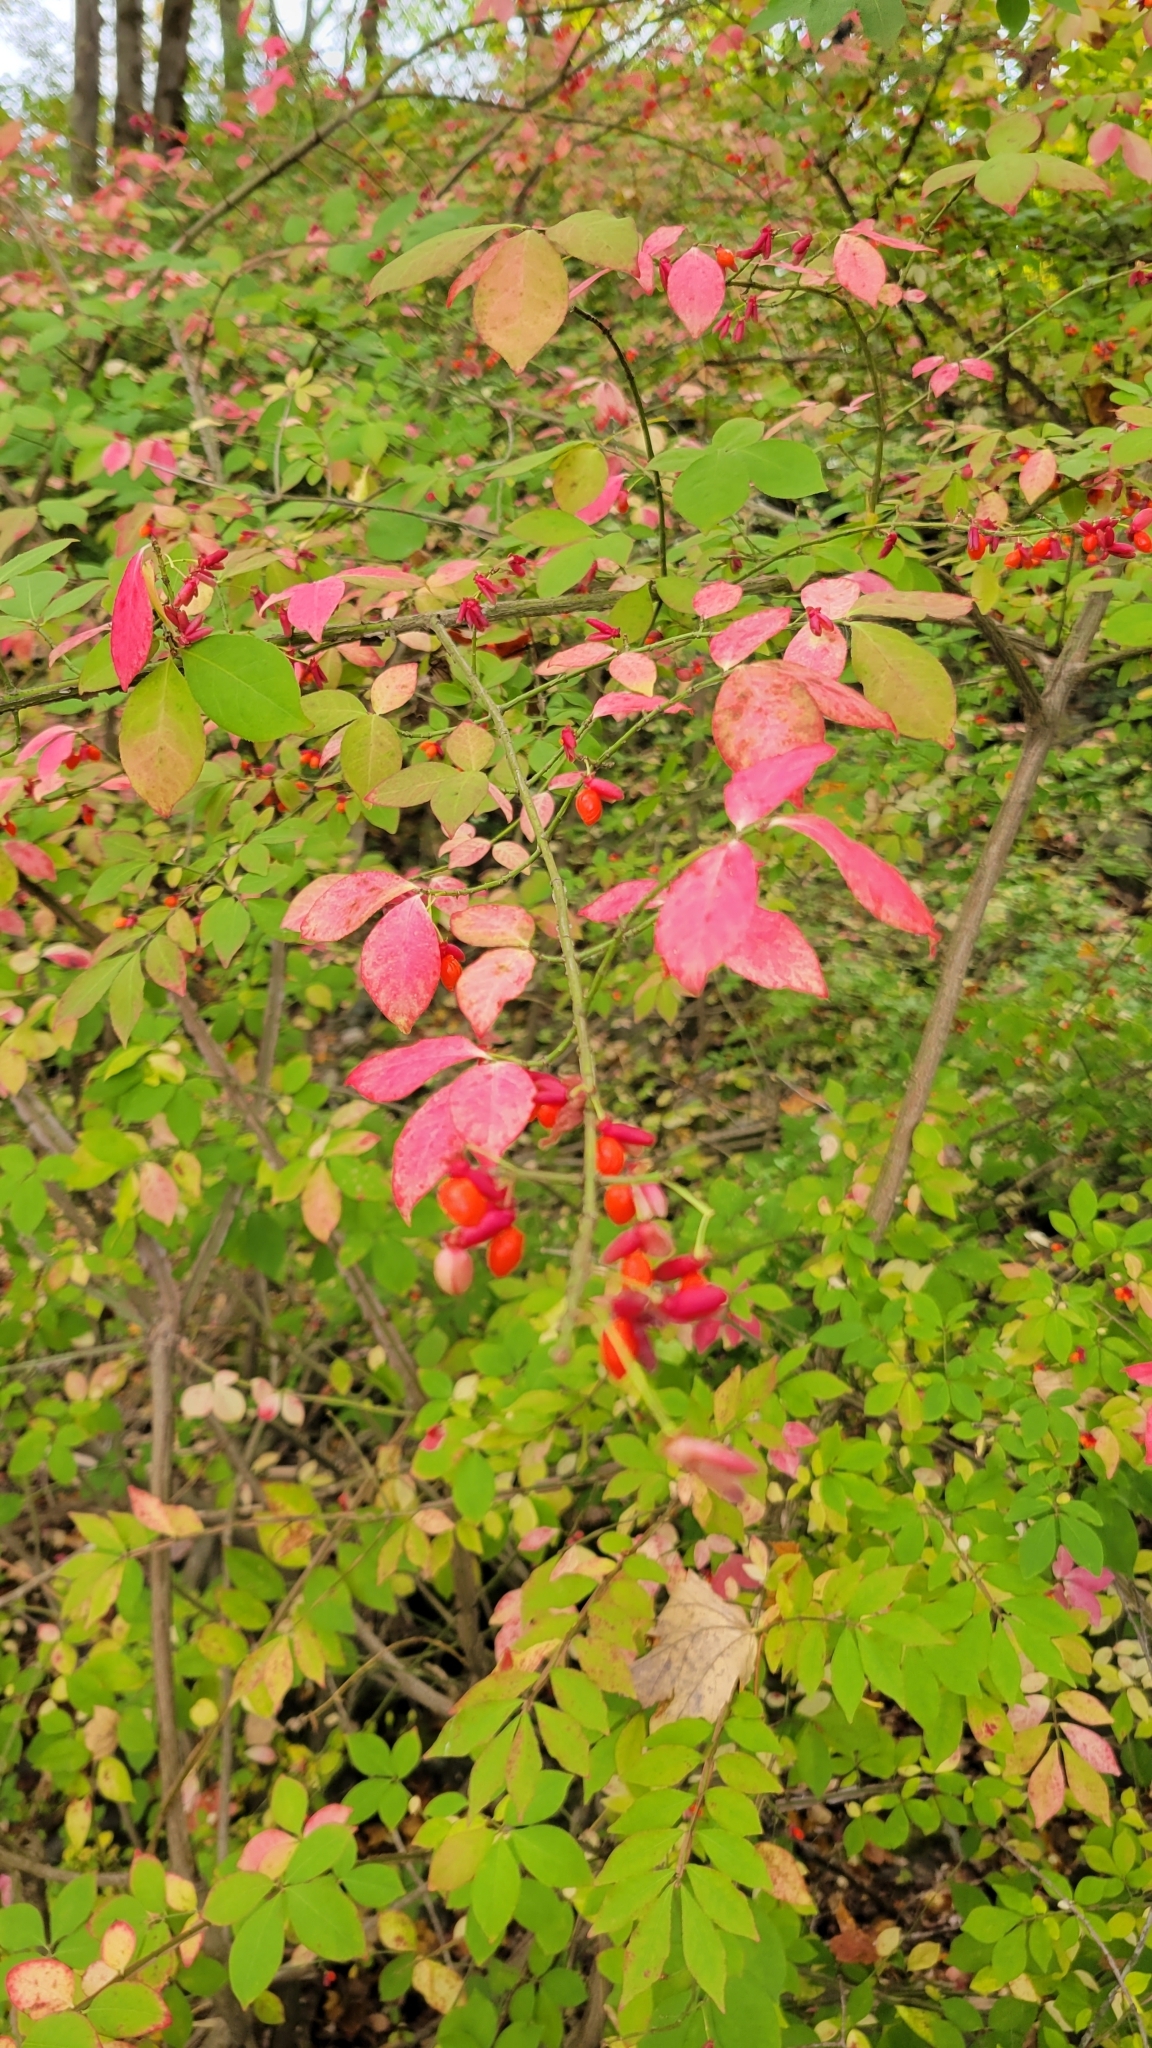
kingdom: Plantae
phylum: Tracheophyta
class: Magnoliopsida
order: Celastrales
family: Celastraceae
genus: Euonymus
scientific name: Euonymus alatus
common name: Winged euonymus
